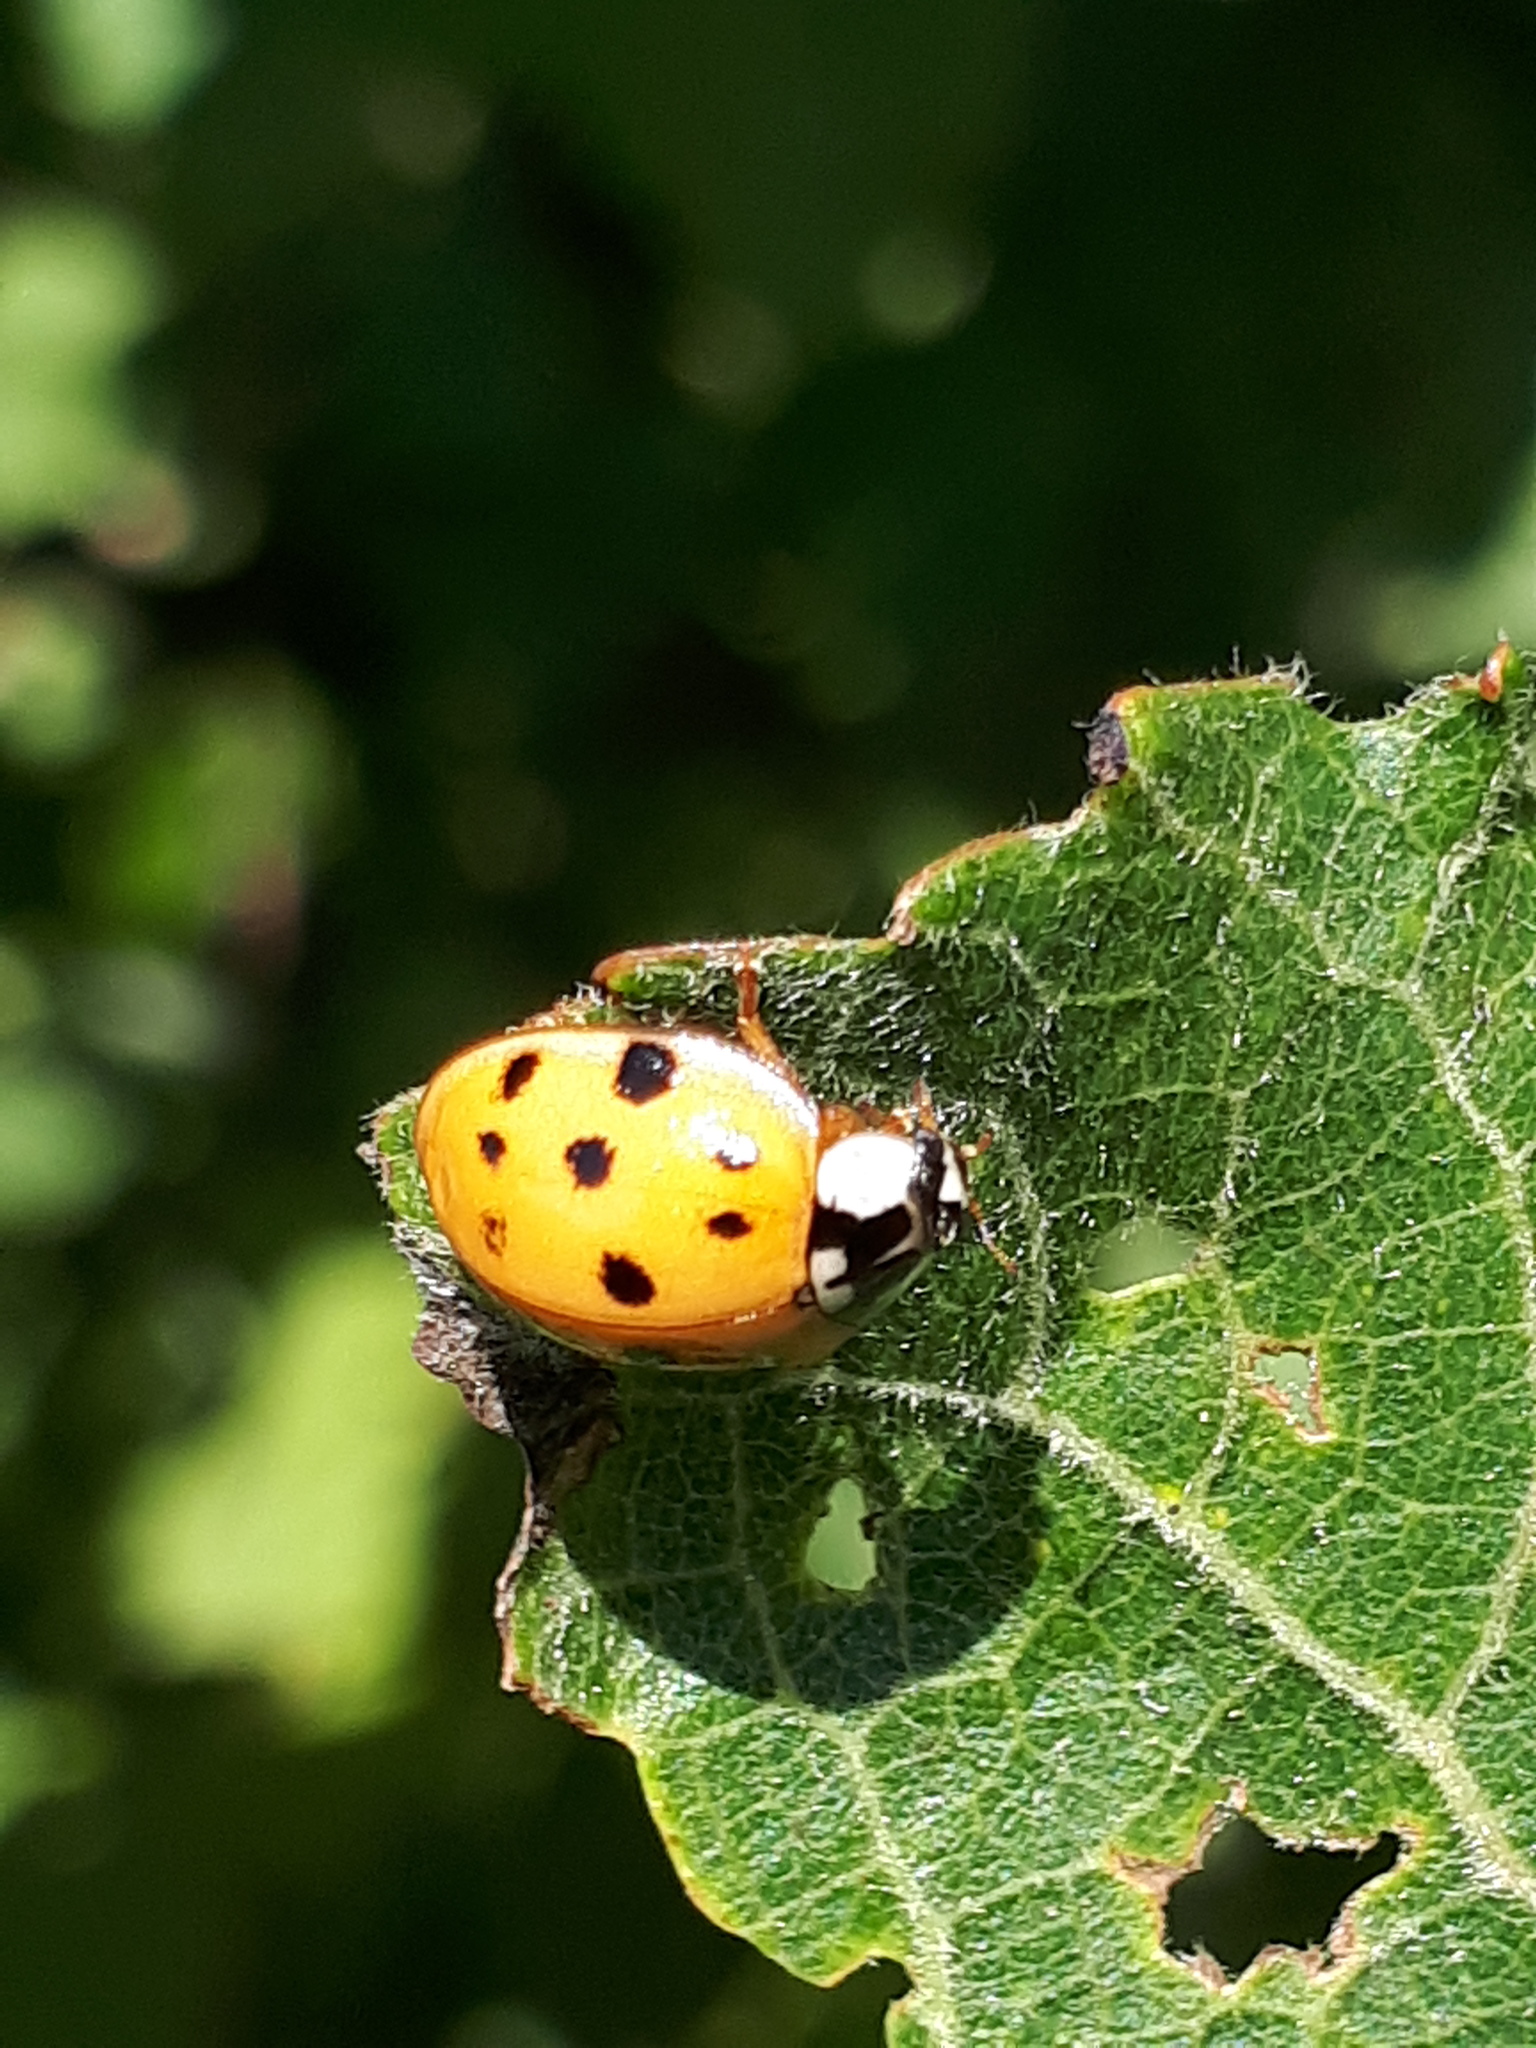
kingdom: Animalia
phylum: Arthropoda
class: Insecta
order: Coleoptera
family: Coccinellidae
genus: Harmonia
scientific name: Harmonia axyridis
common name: Harlequin ladybird
